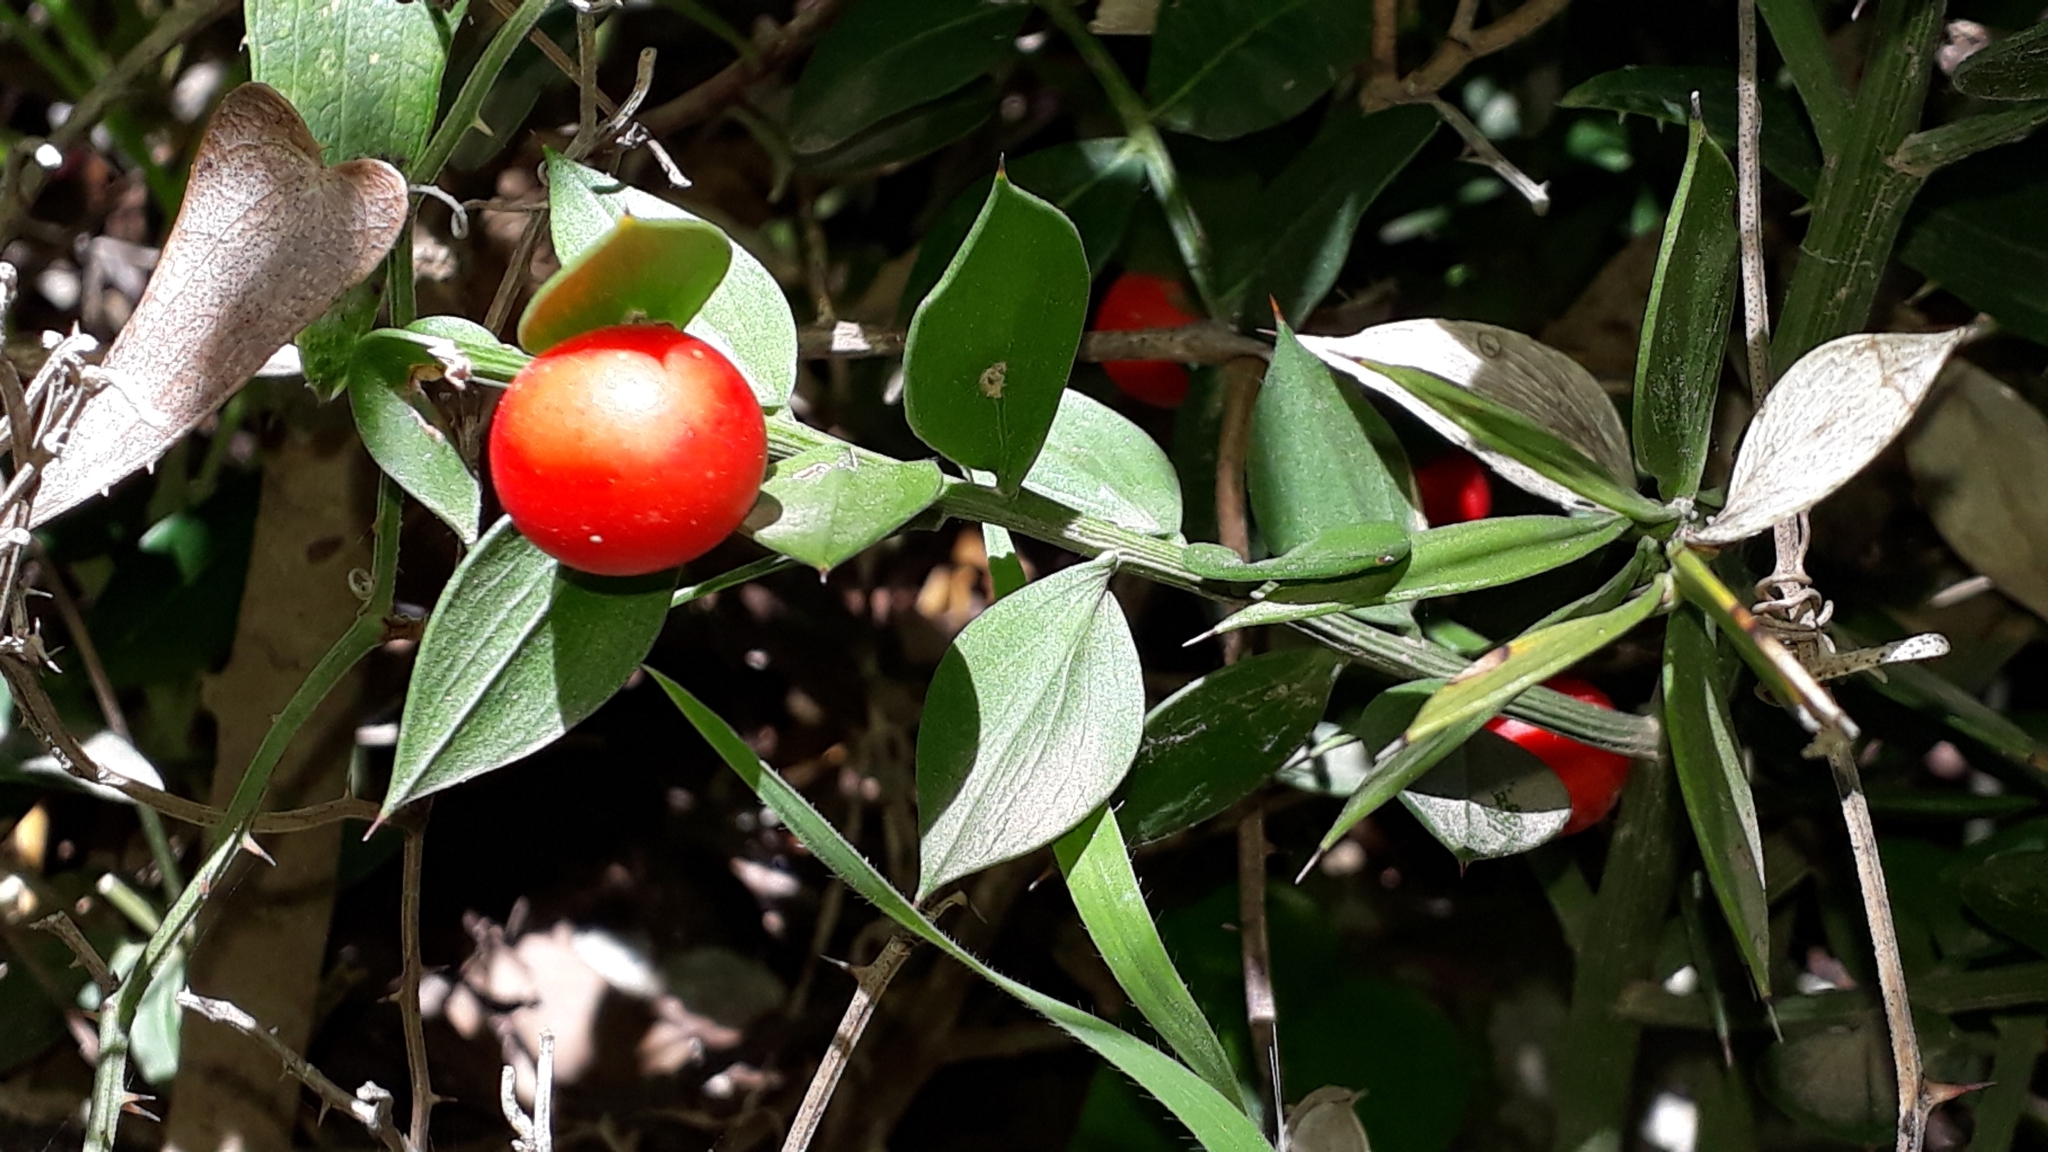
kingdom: Plantae
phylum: Tracheophyta
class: Liliopsida
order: Asparagales
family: Asparagaceae
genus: Ruscus
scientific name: Ruscus aculeatus
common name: Butcher's-broom
